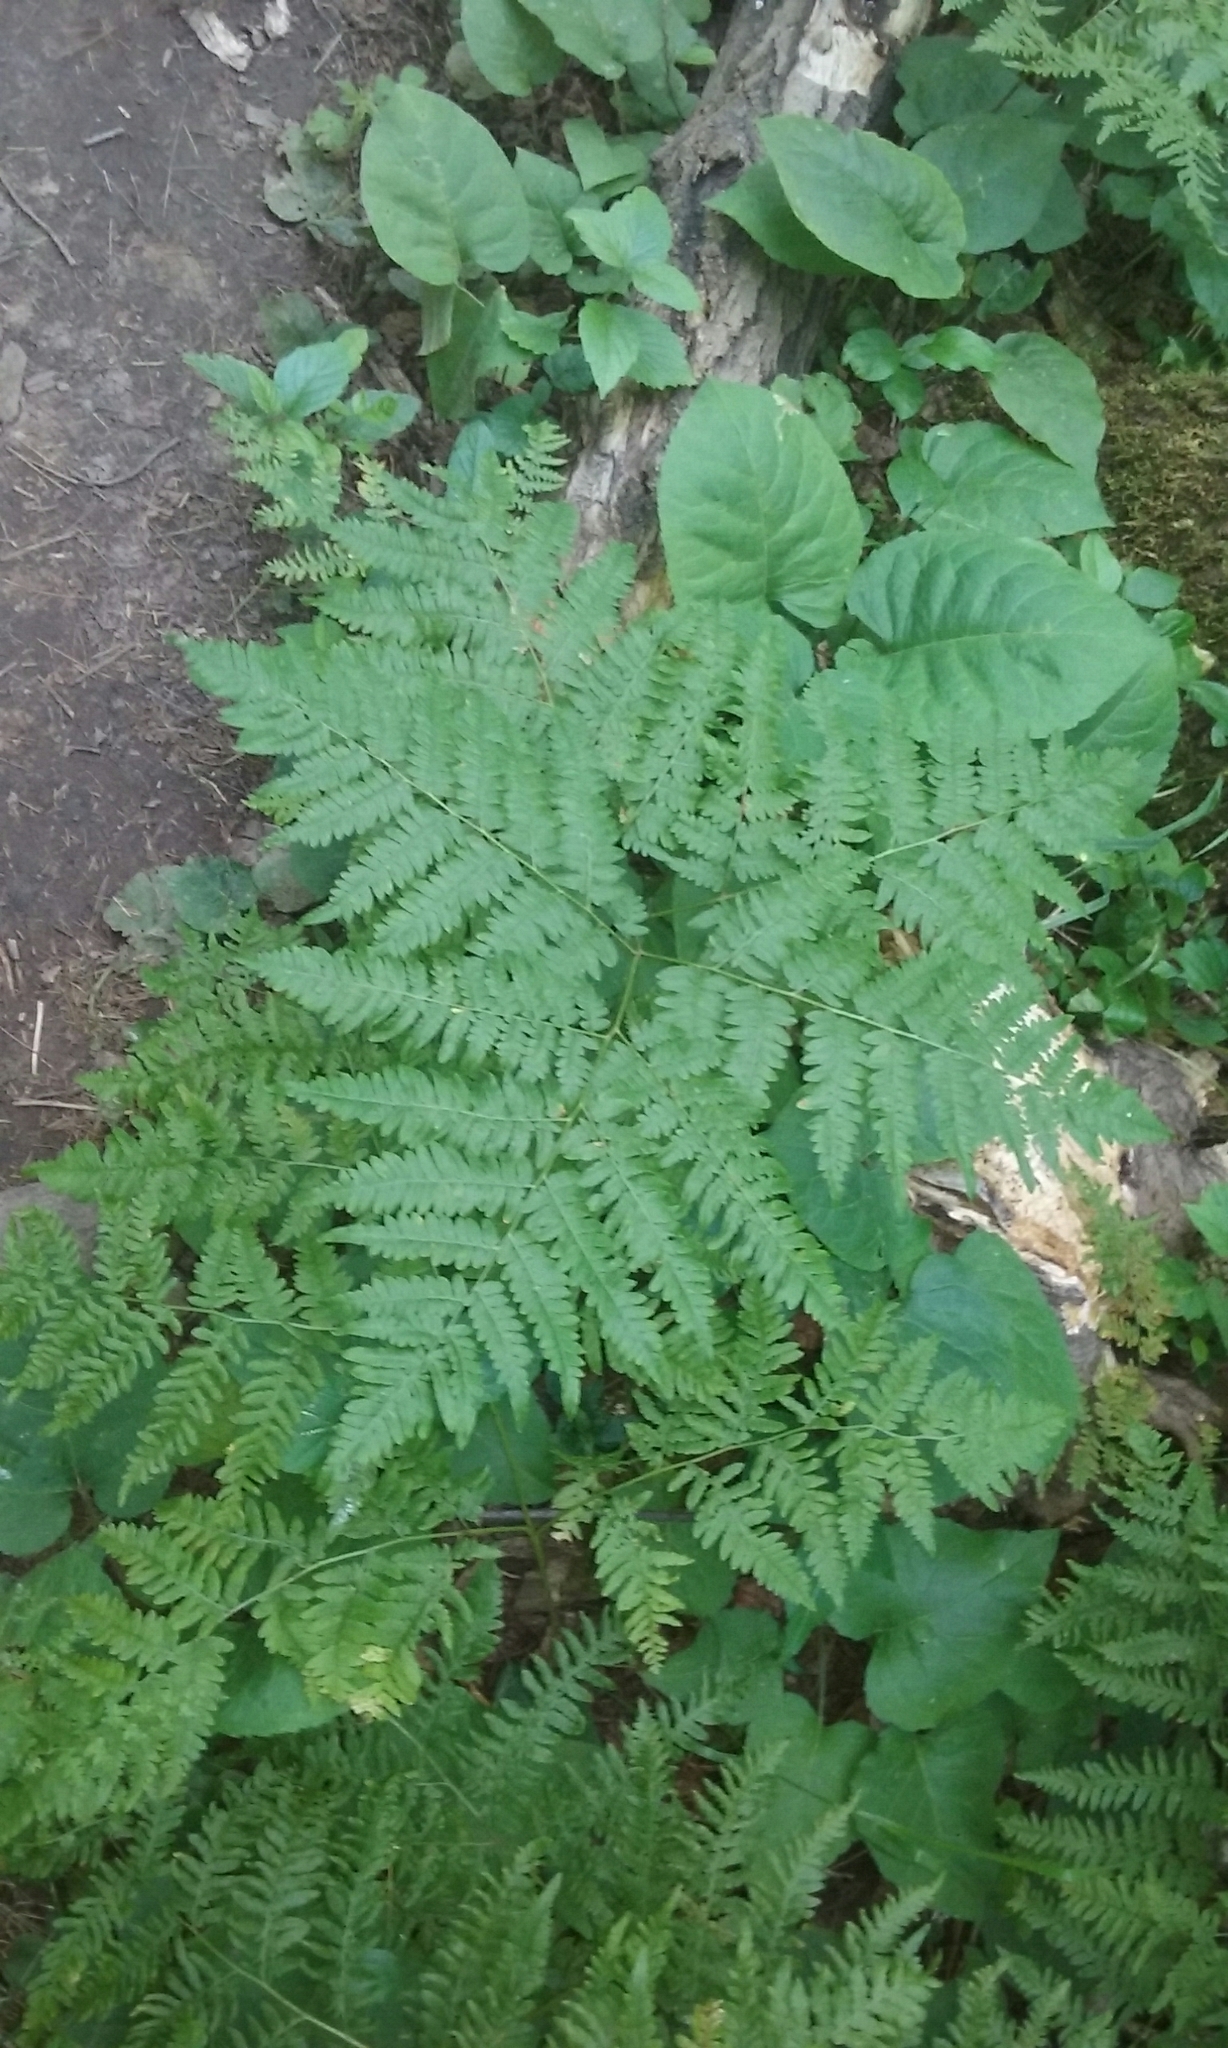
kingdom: Plantae
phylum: Tracheophyta
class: Polypodiopsida
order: Polypodiales
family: Dennstaedtiaceae
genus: Pteridium
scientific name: Pteridium aquilinum
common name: Bracken
